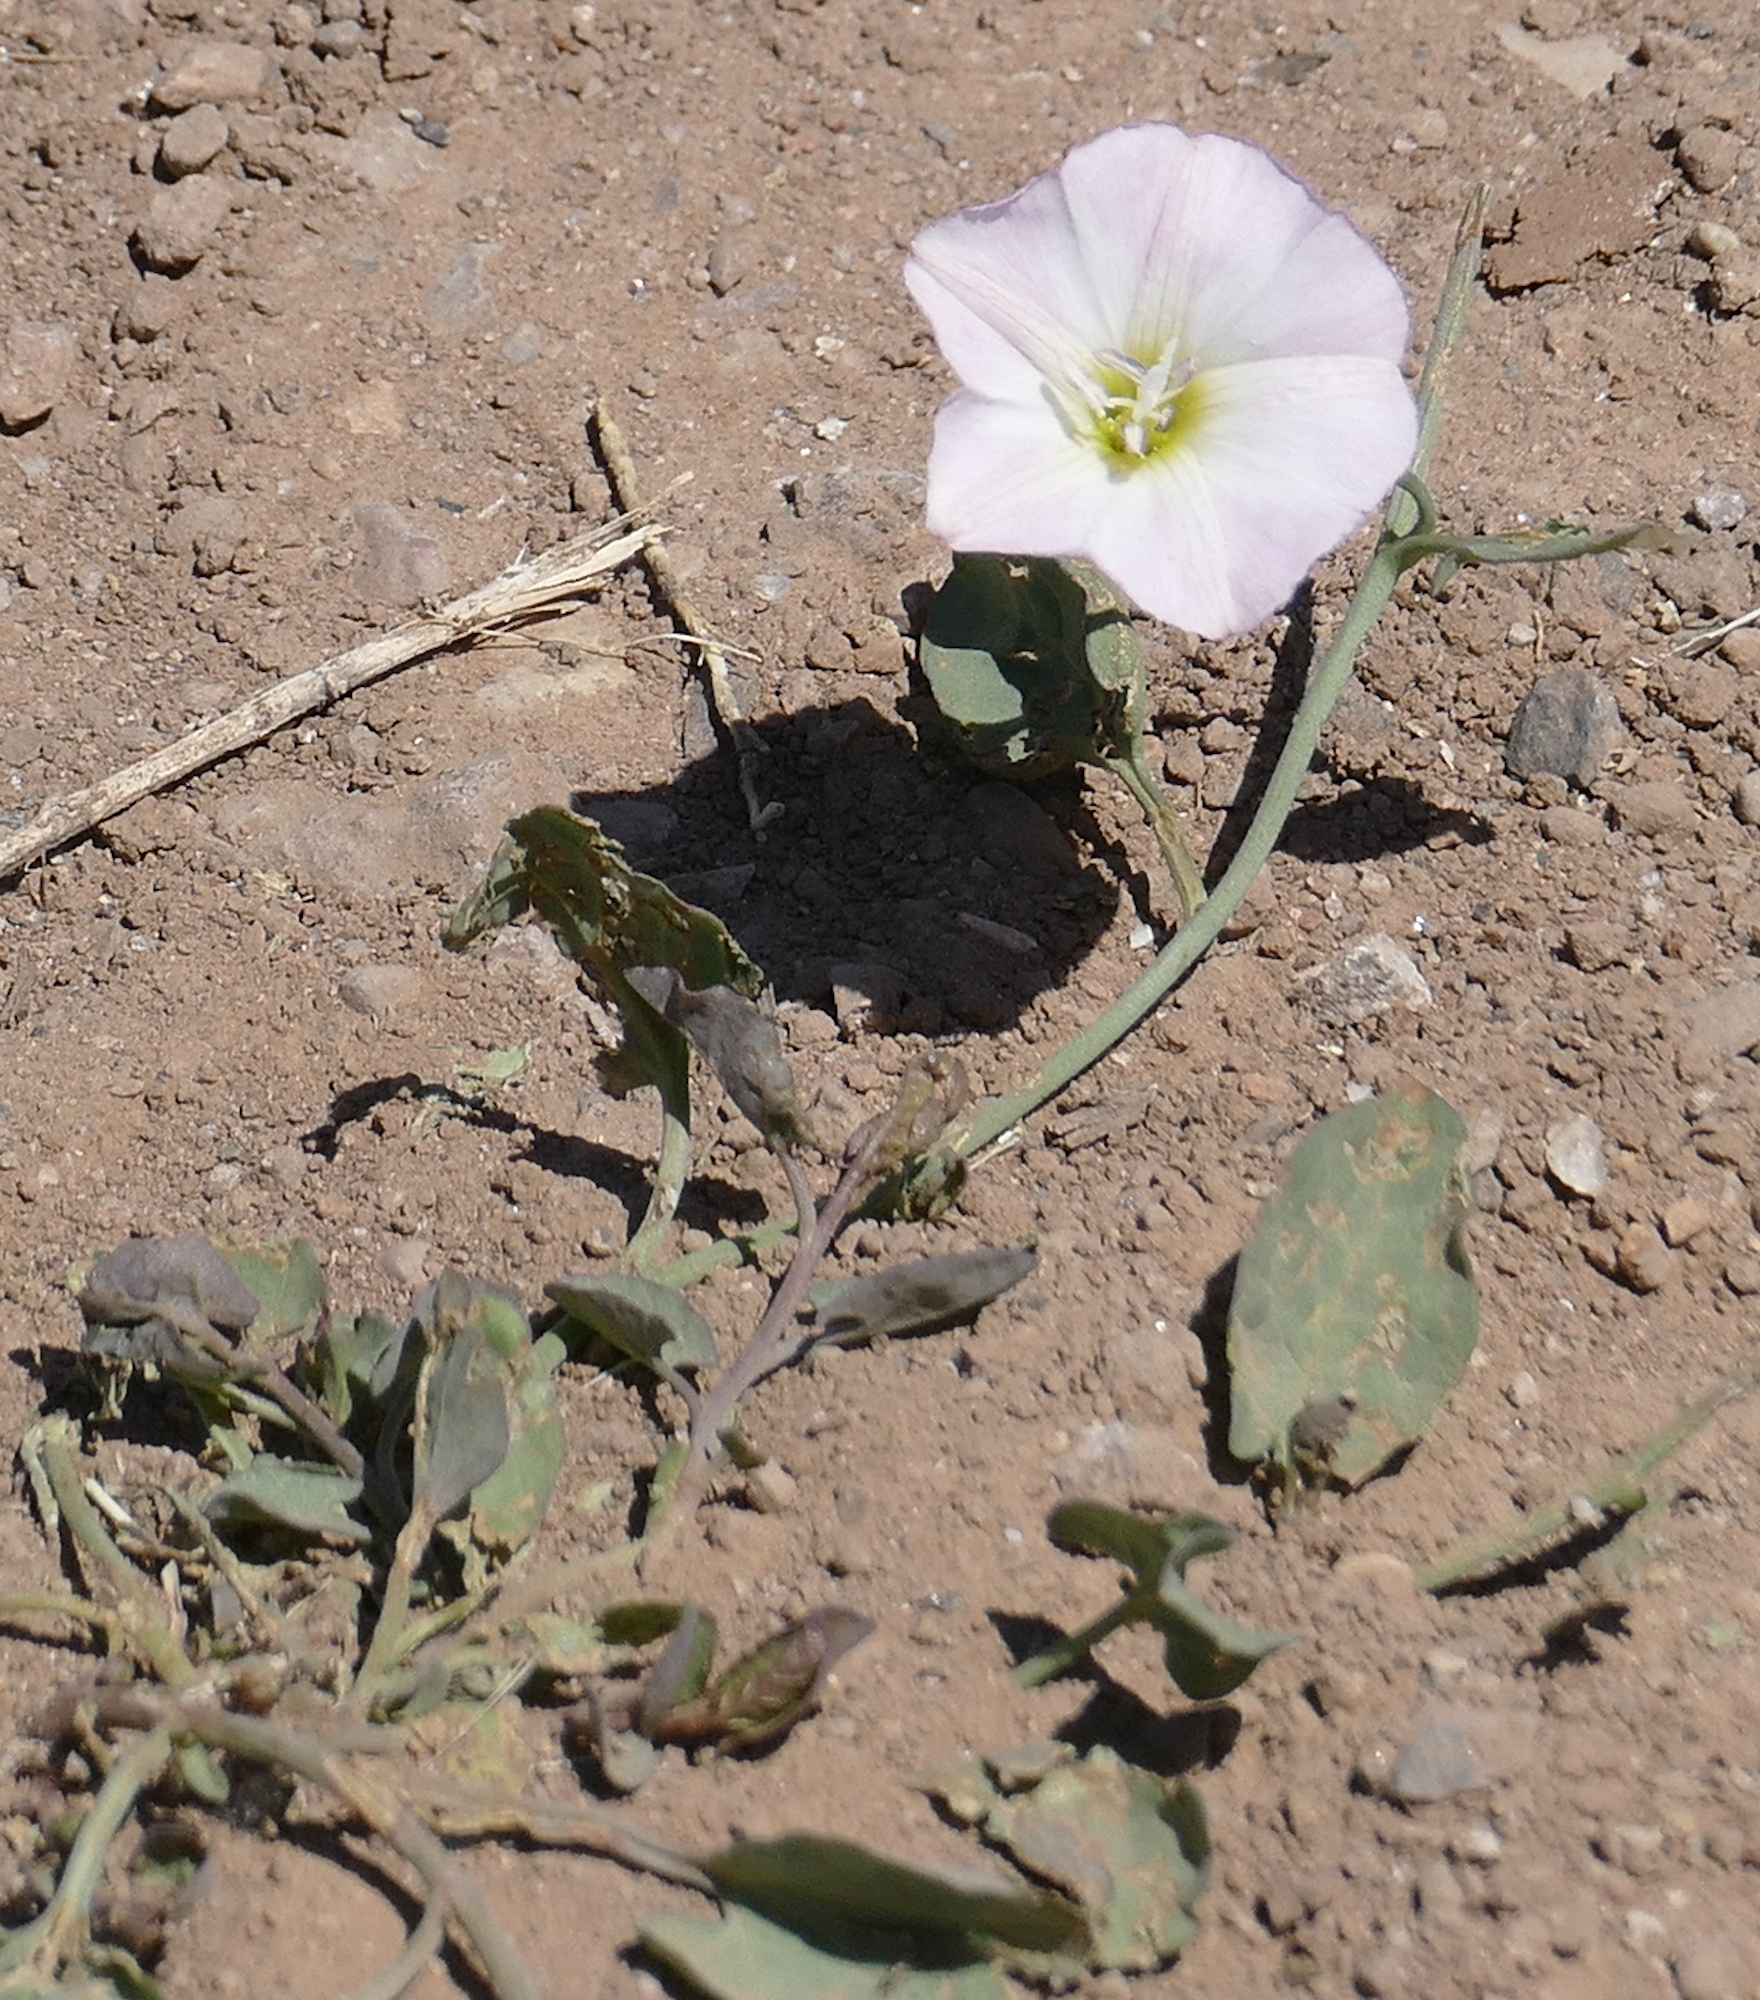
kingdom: Plantae
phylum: Tracheophyta
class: Magnoliopsida
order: Solanales
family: Convolvulaceae
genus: Convolvulus
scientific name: Convolvulus arvensis
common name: Field bindweed
